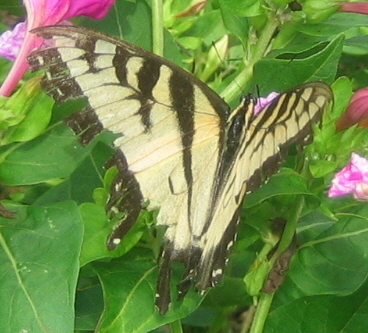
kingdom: Animalia
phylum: Arthropoda
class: Insecta
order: Lepidoptera
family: Papilionidae
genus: Papilio
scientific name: Papilio glaucus
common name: Tiger swallowtail
